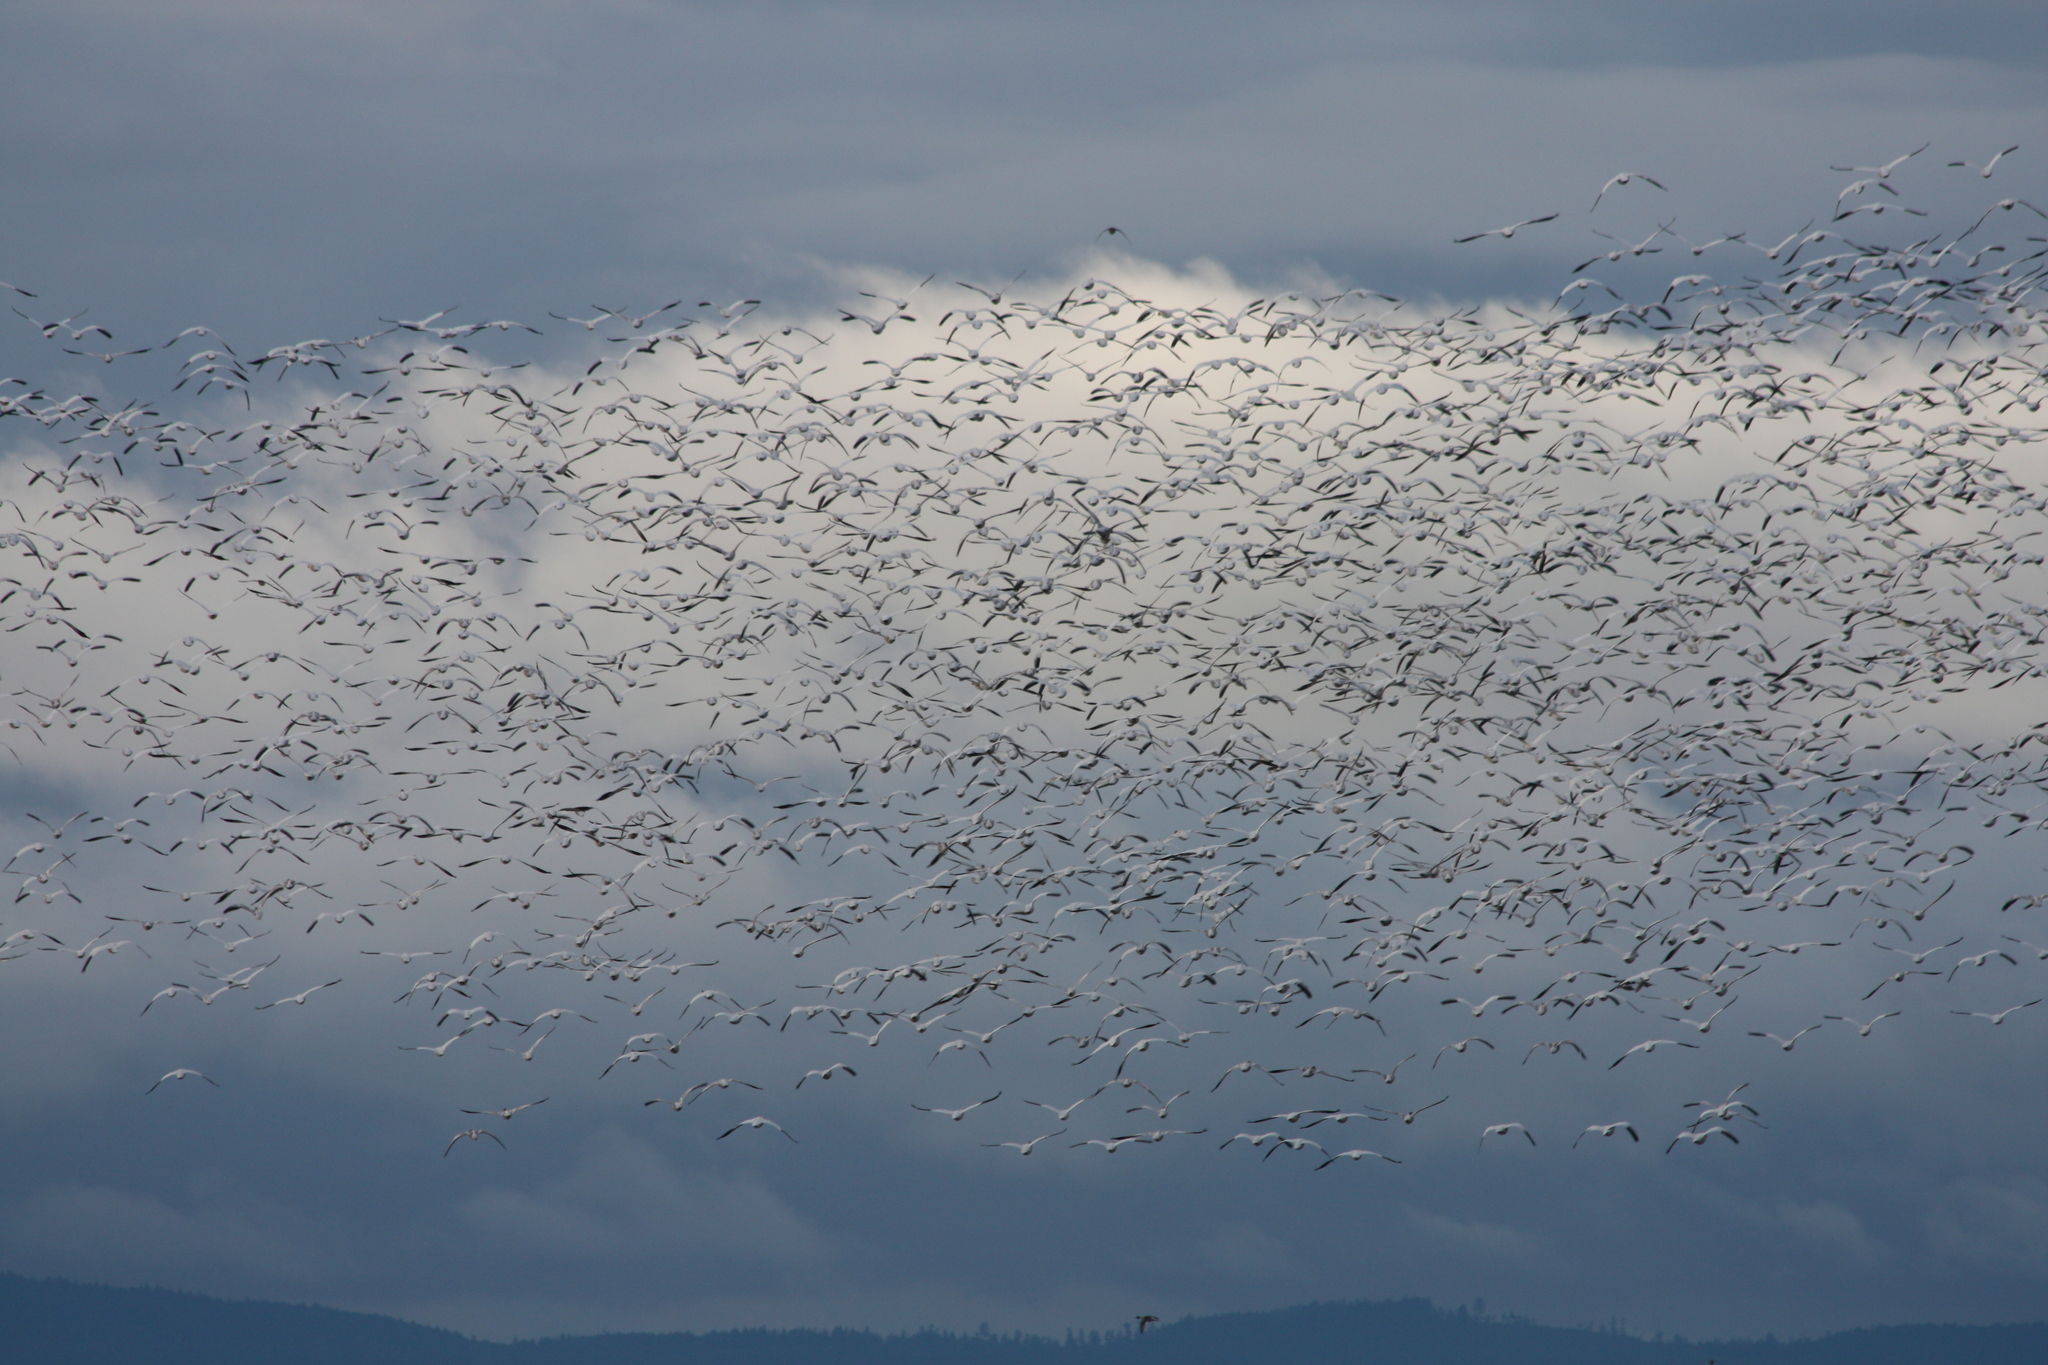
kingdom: Animalia
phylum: Chordata
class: Aves
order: Anseriformes
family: Anatidae
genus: Anser
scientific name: Anser caerulescens
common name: Snow goose
